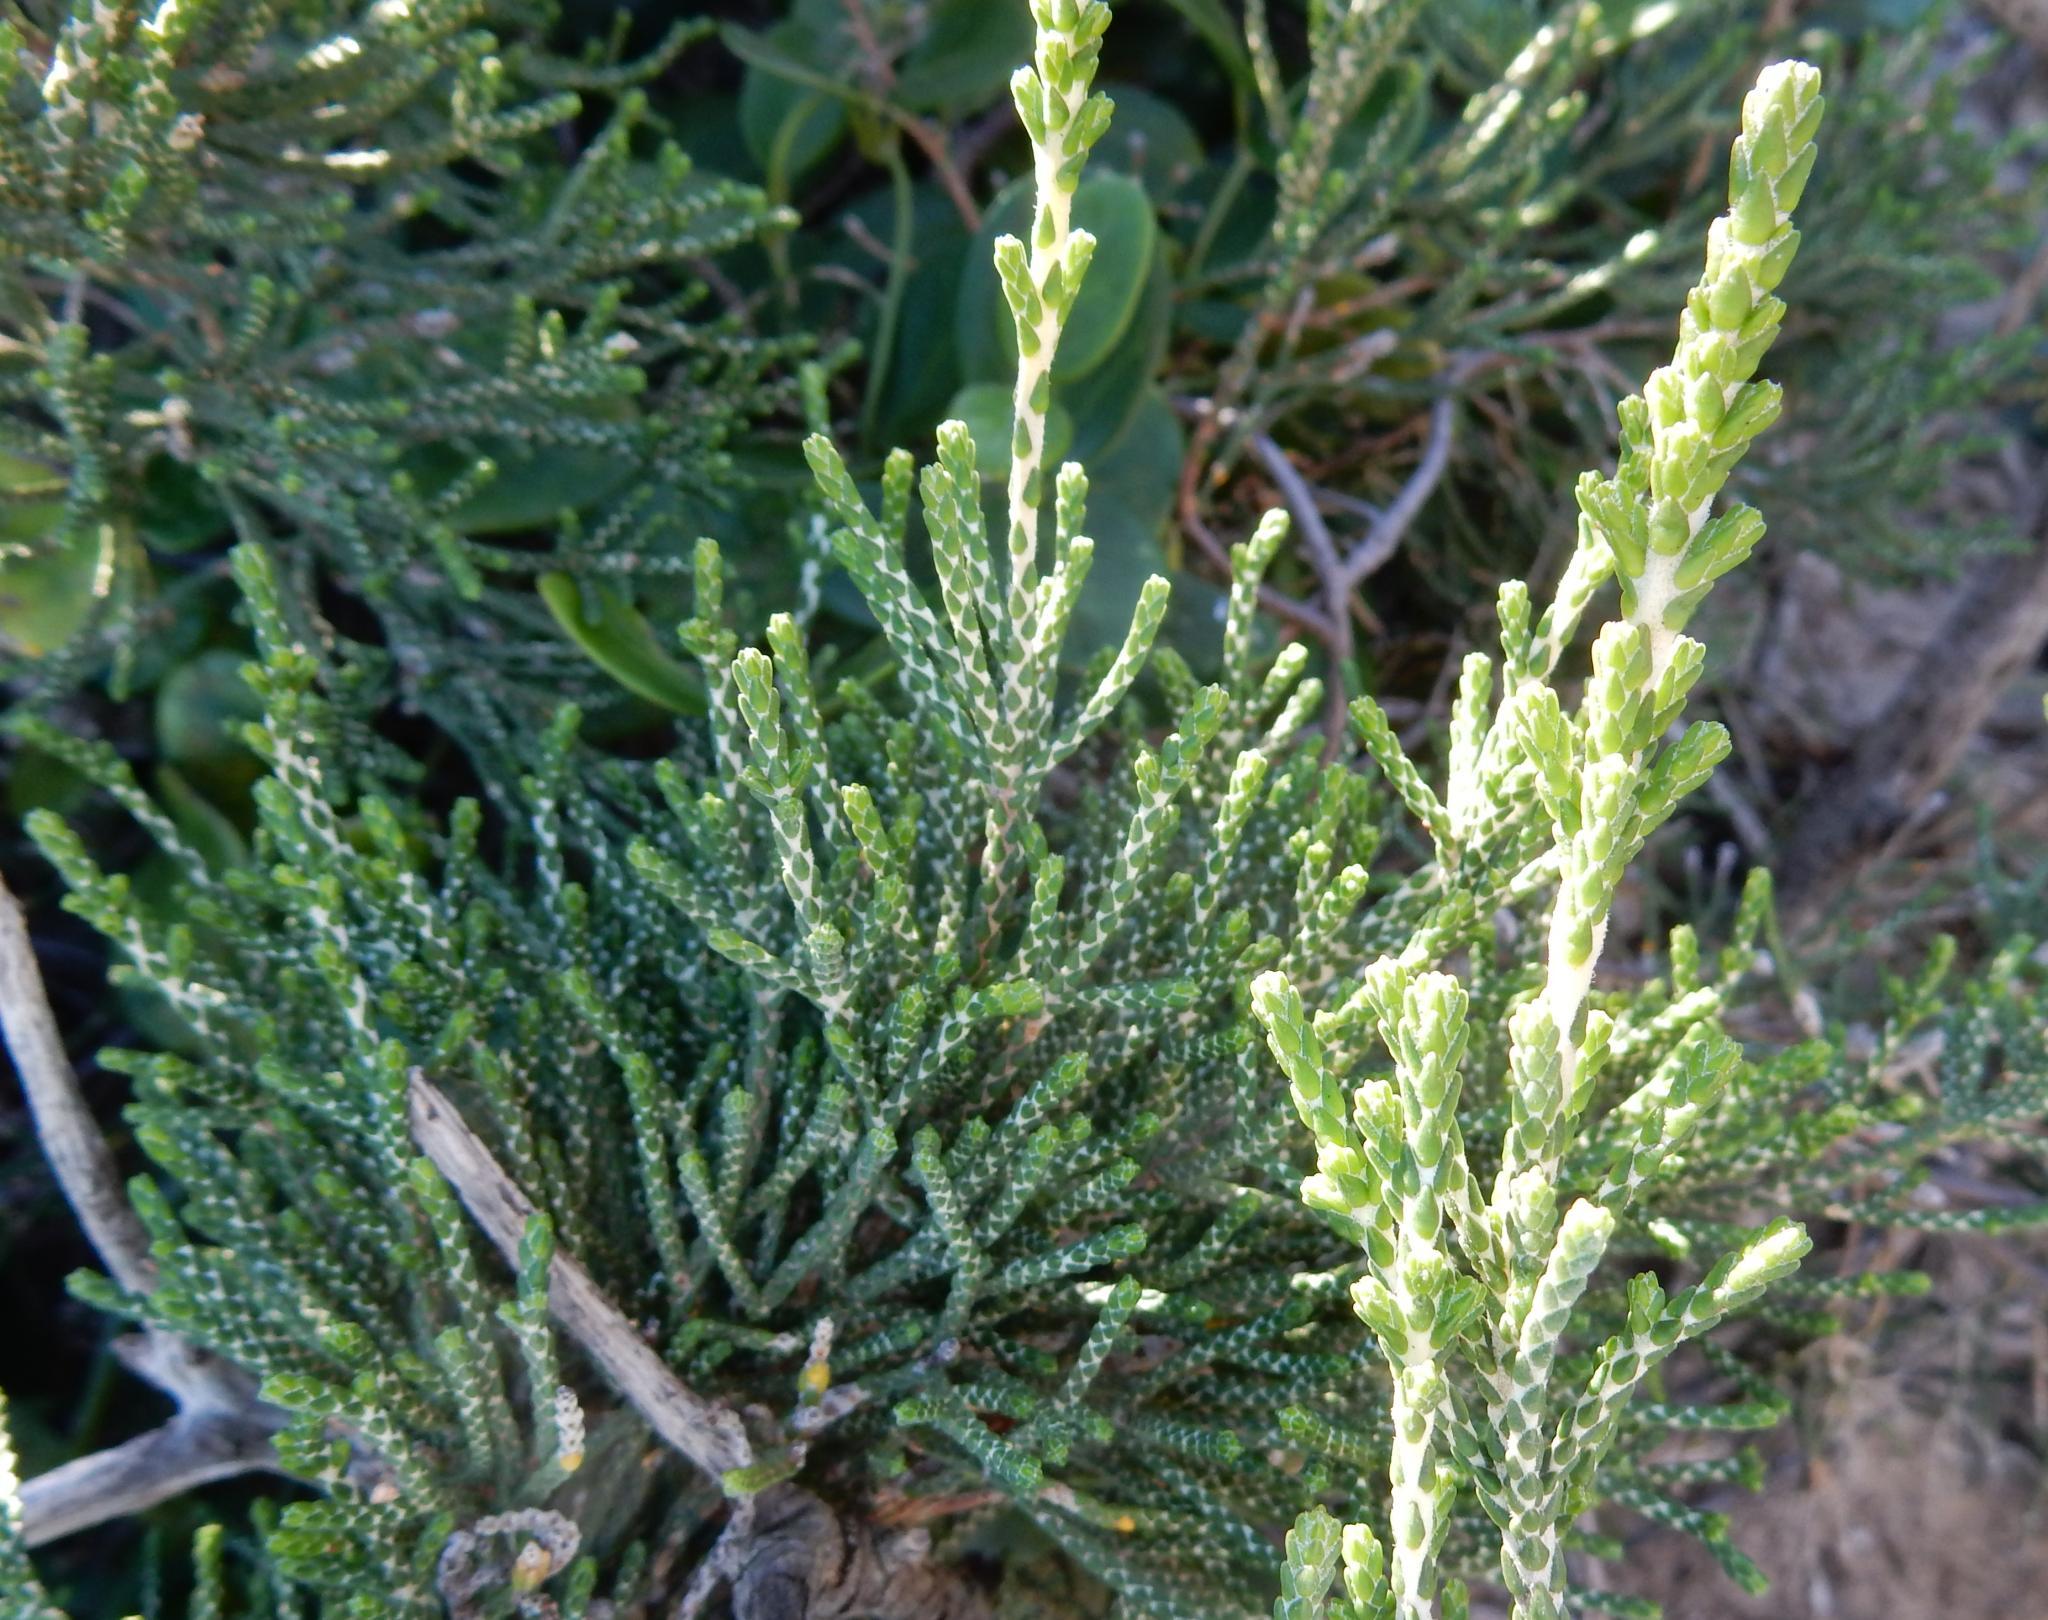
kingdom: Plantae
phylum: Tracheophyta
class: Magnoliopsida
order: Malvales
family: Thymelaeaceae
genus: Passerina
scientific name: Passerina rigida
